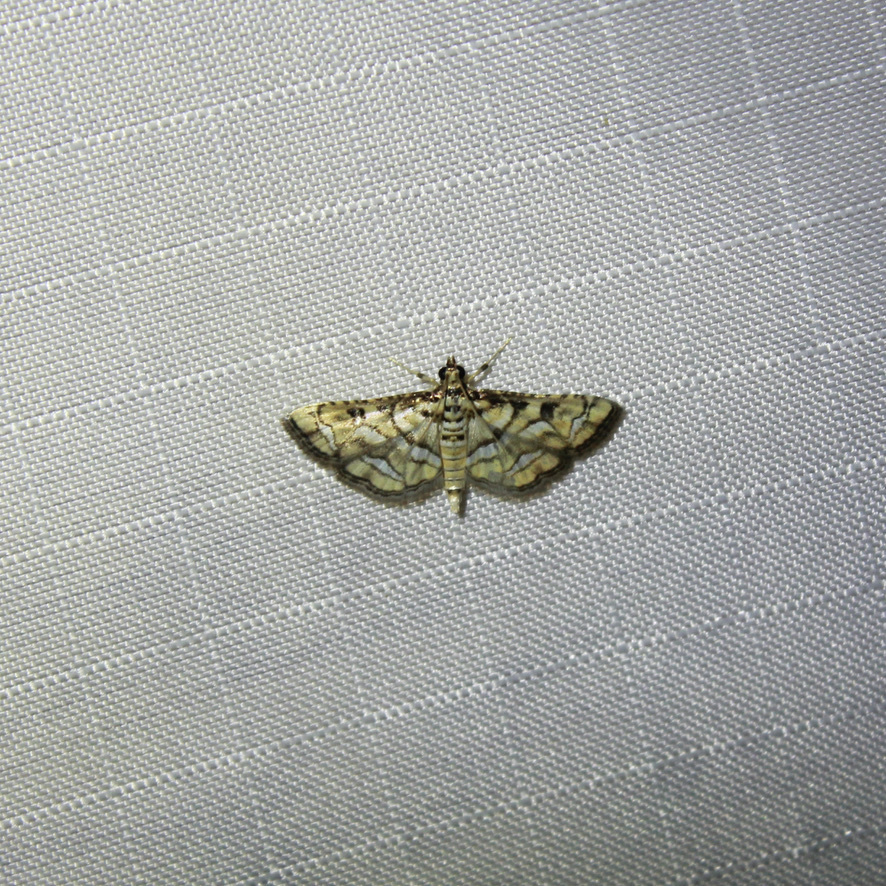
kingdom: Animalia
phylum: Arthropoda
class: Insecta
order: Lepidoptera
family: Crambidae
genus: Hileithia
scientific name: Hileithia magualis
